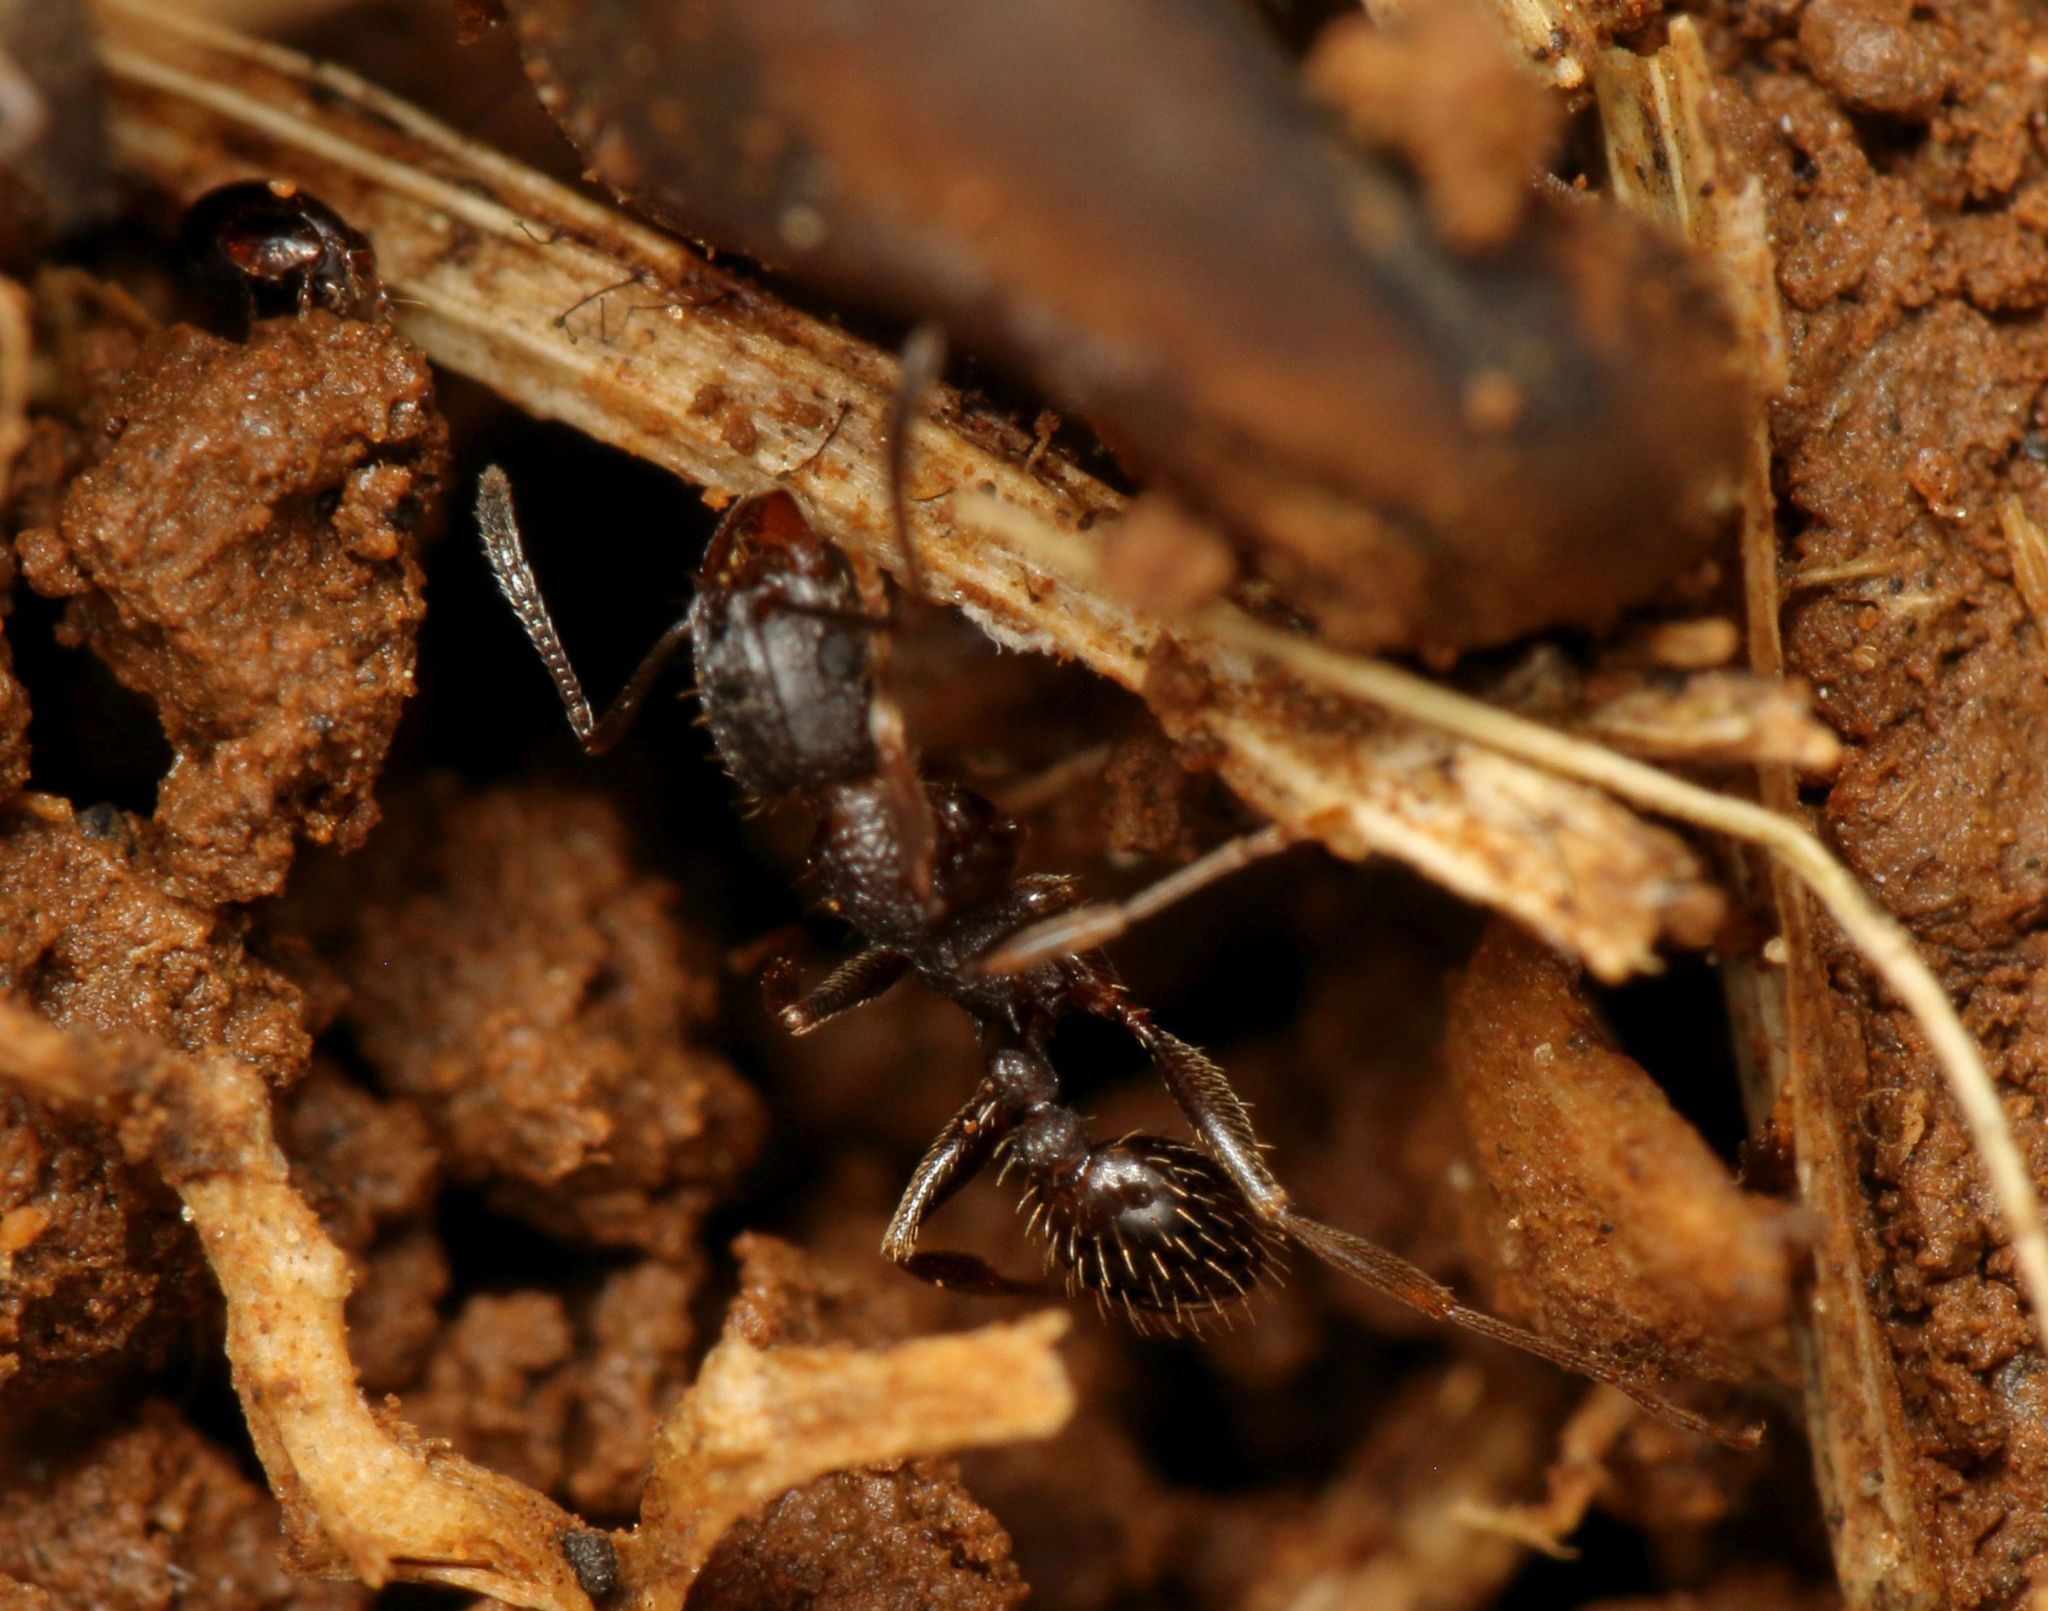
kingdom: Animalia
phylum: Arthropoda
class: Insecta
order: Hymenoptera
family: Formicidae
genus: Tetramorium
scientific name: Tetramorium grassii
